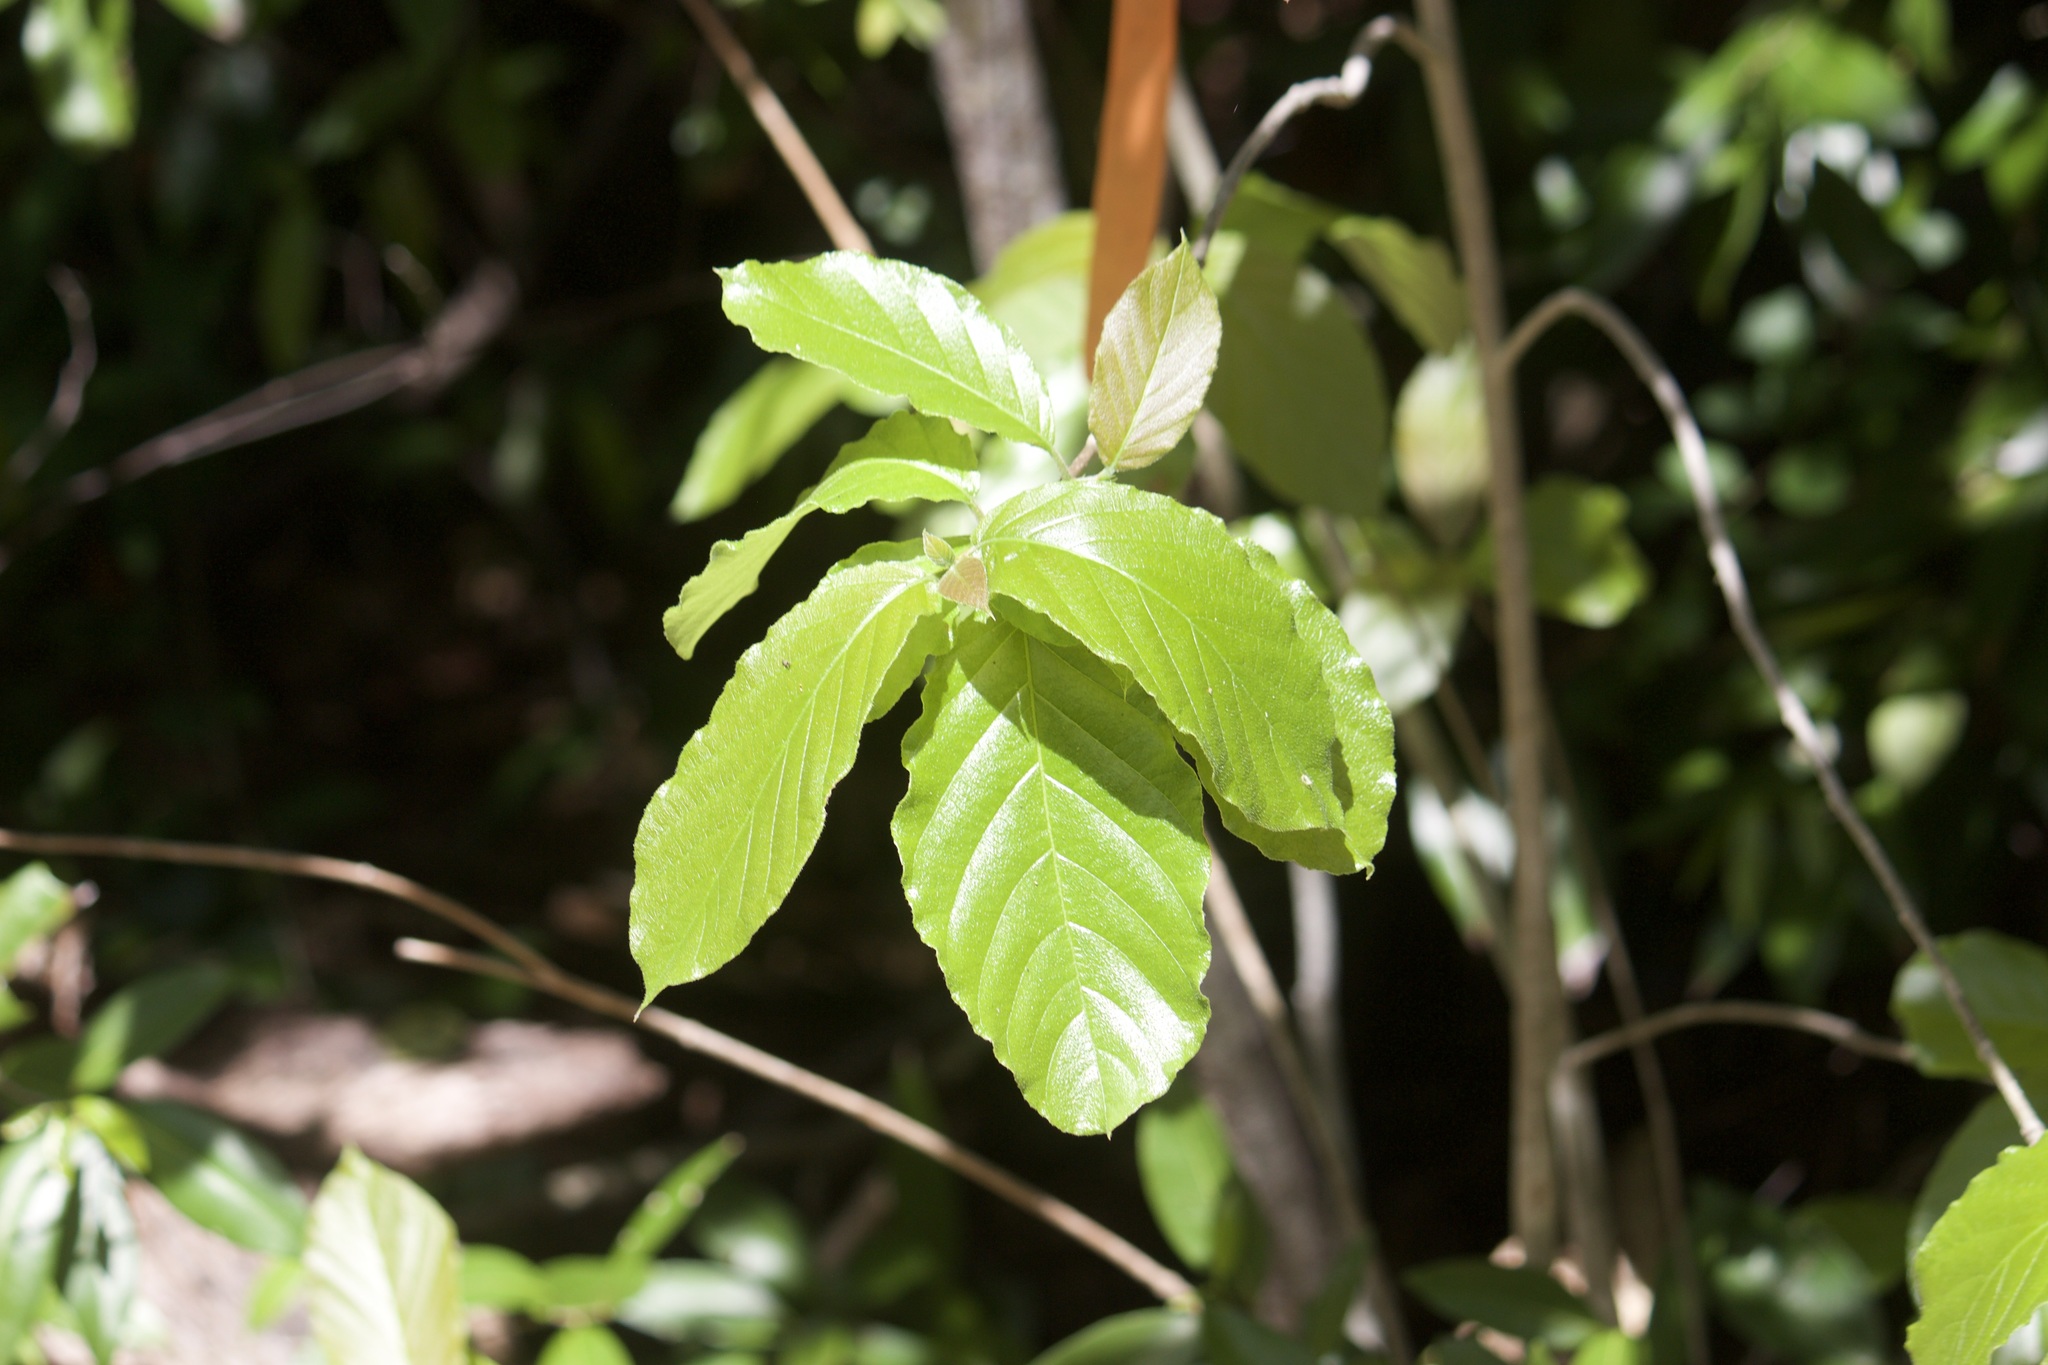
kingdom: Plantae
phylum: Tracheophyta
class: Magnoliopsida
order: Gentianales
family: Rubiaceae
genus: Guettarda
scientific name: Guettarda scabra
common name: Pigeon bay
